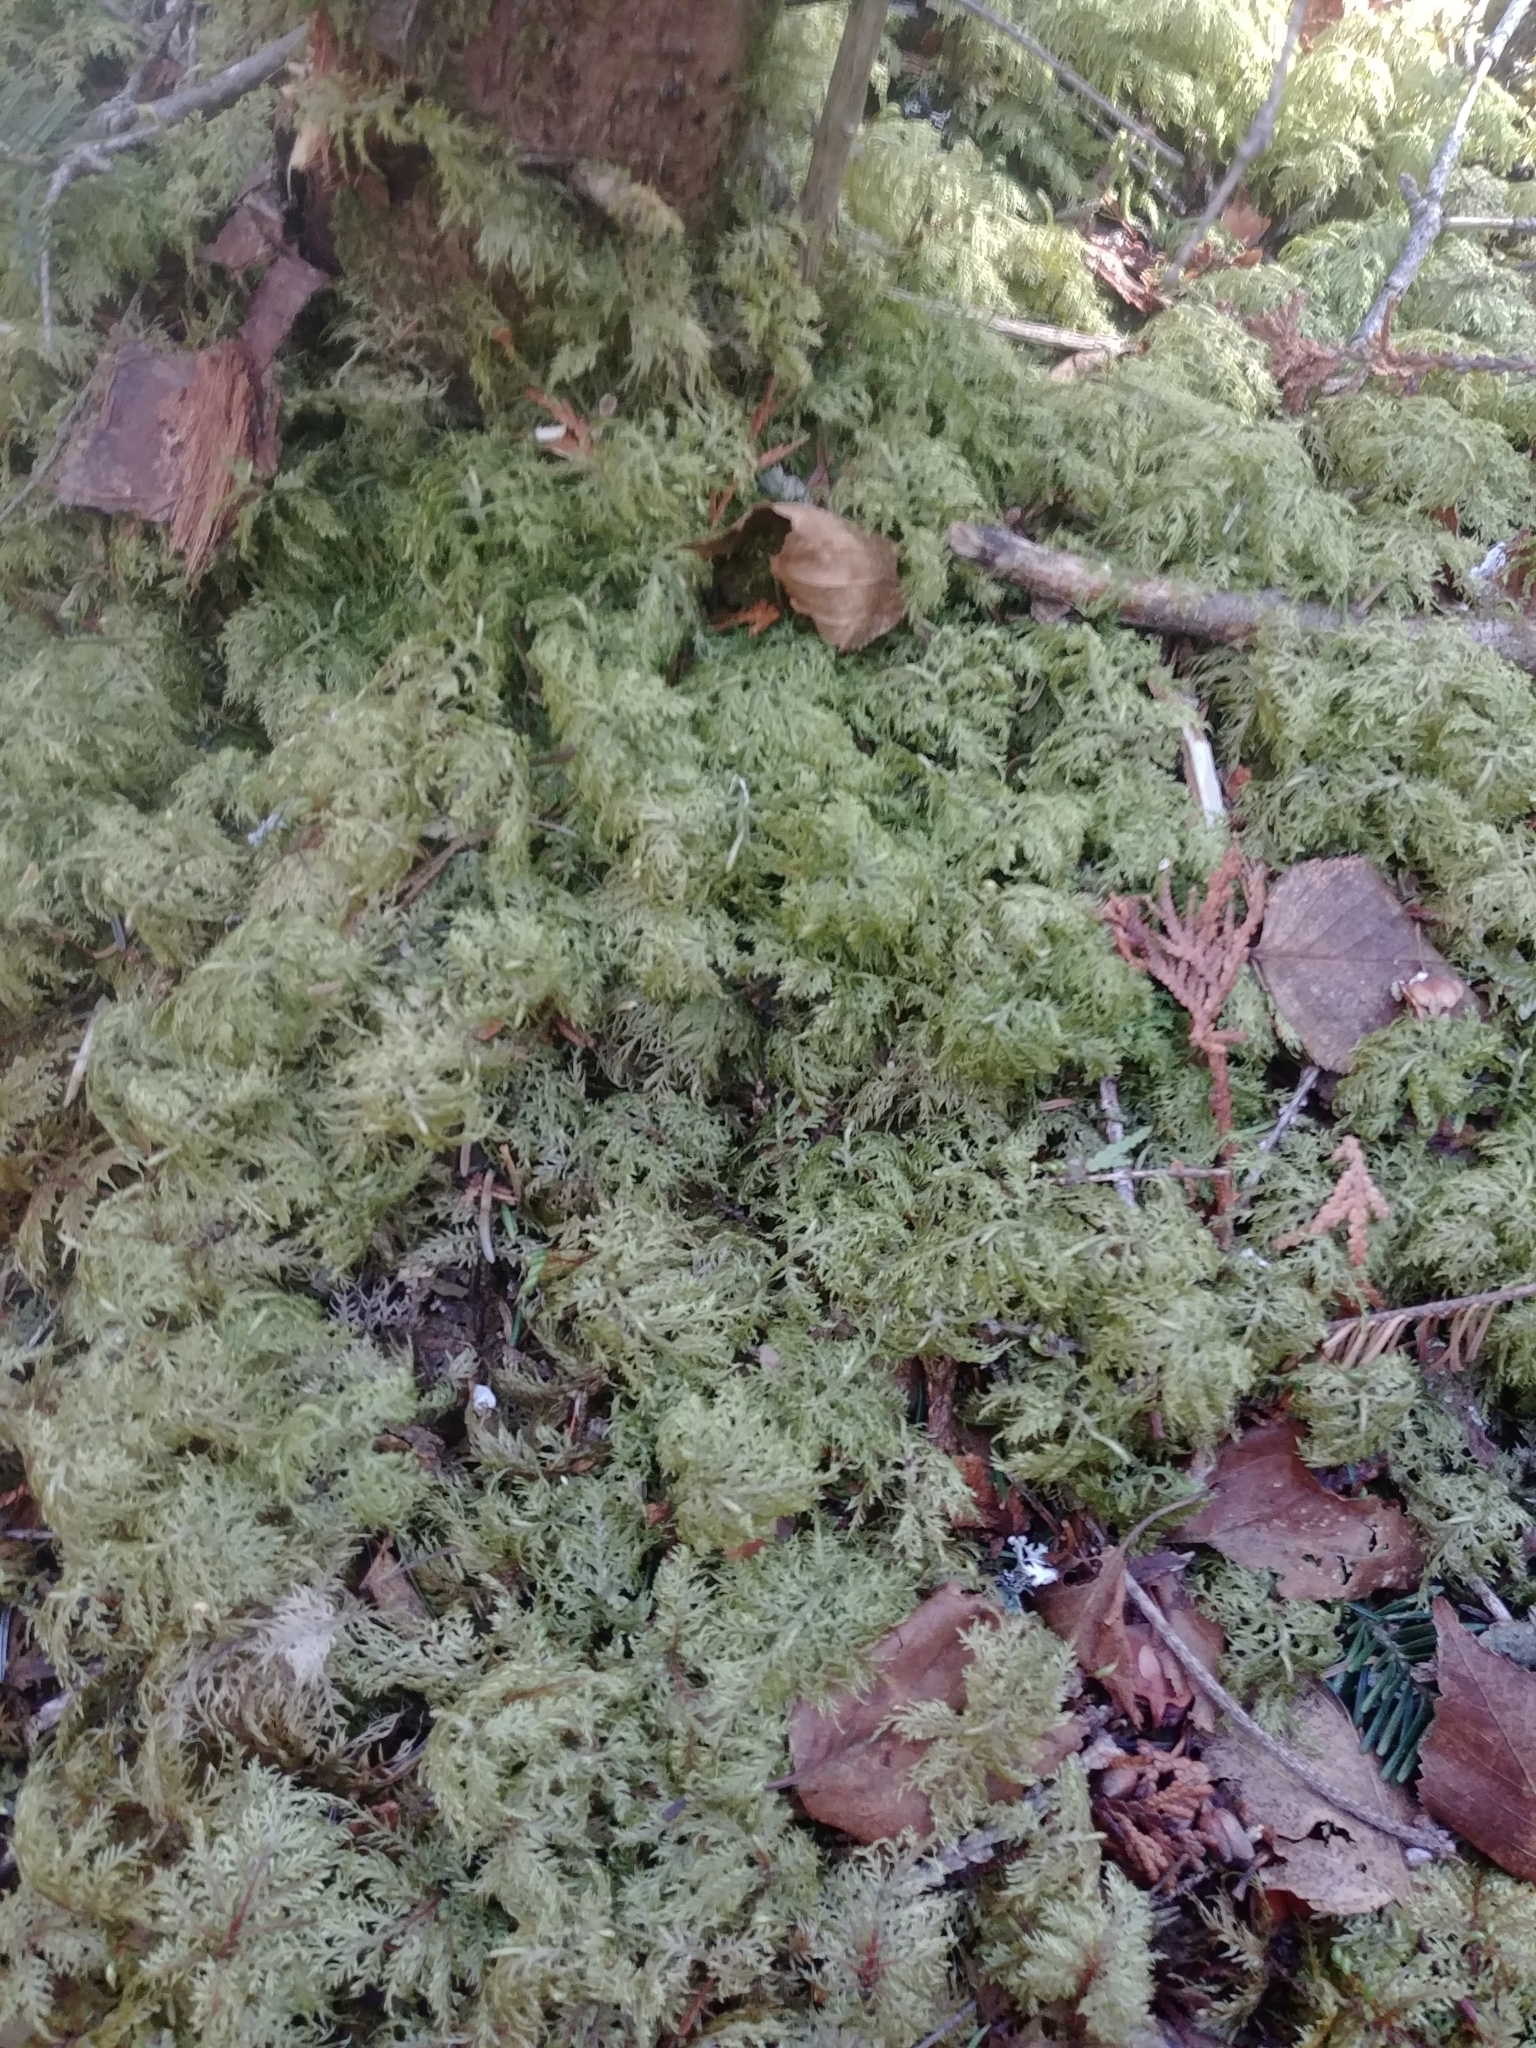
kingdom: Plantae
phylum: Bryophyta
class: Bryopsida
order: Hypnales
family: Hylocomiaceae
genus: Hylocomium
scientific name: Hylocomium splendens
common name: Stairstep moss
